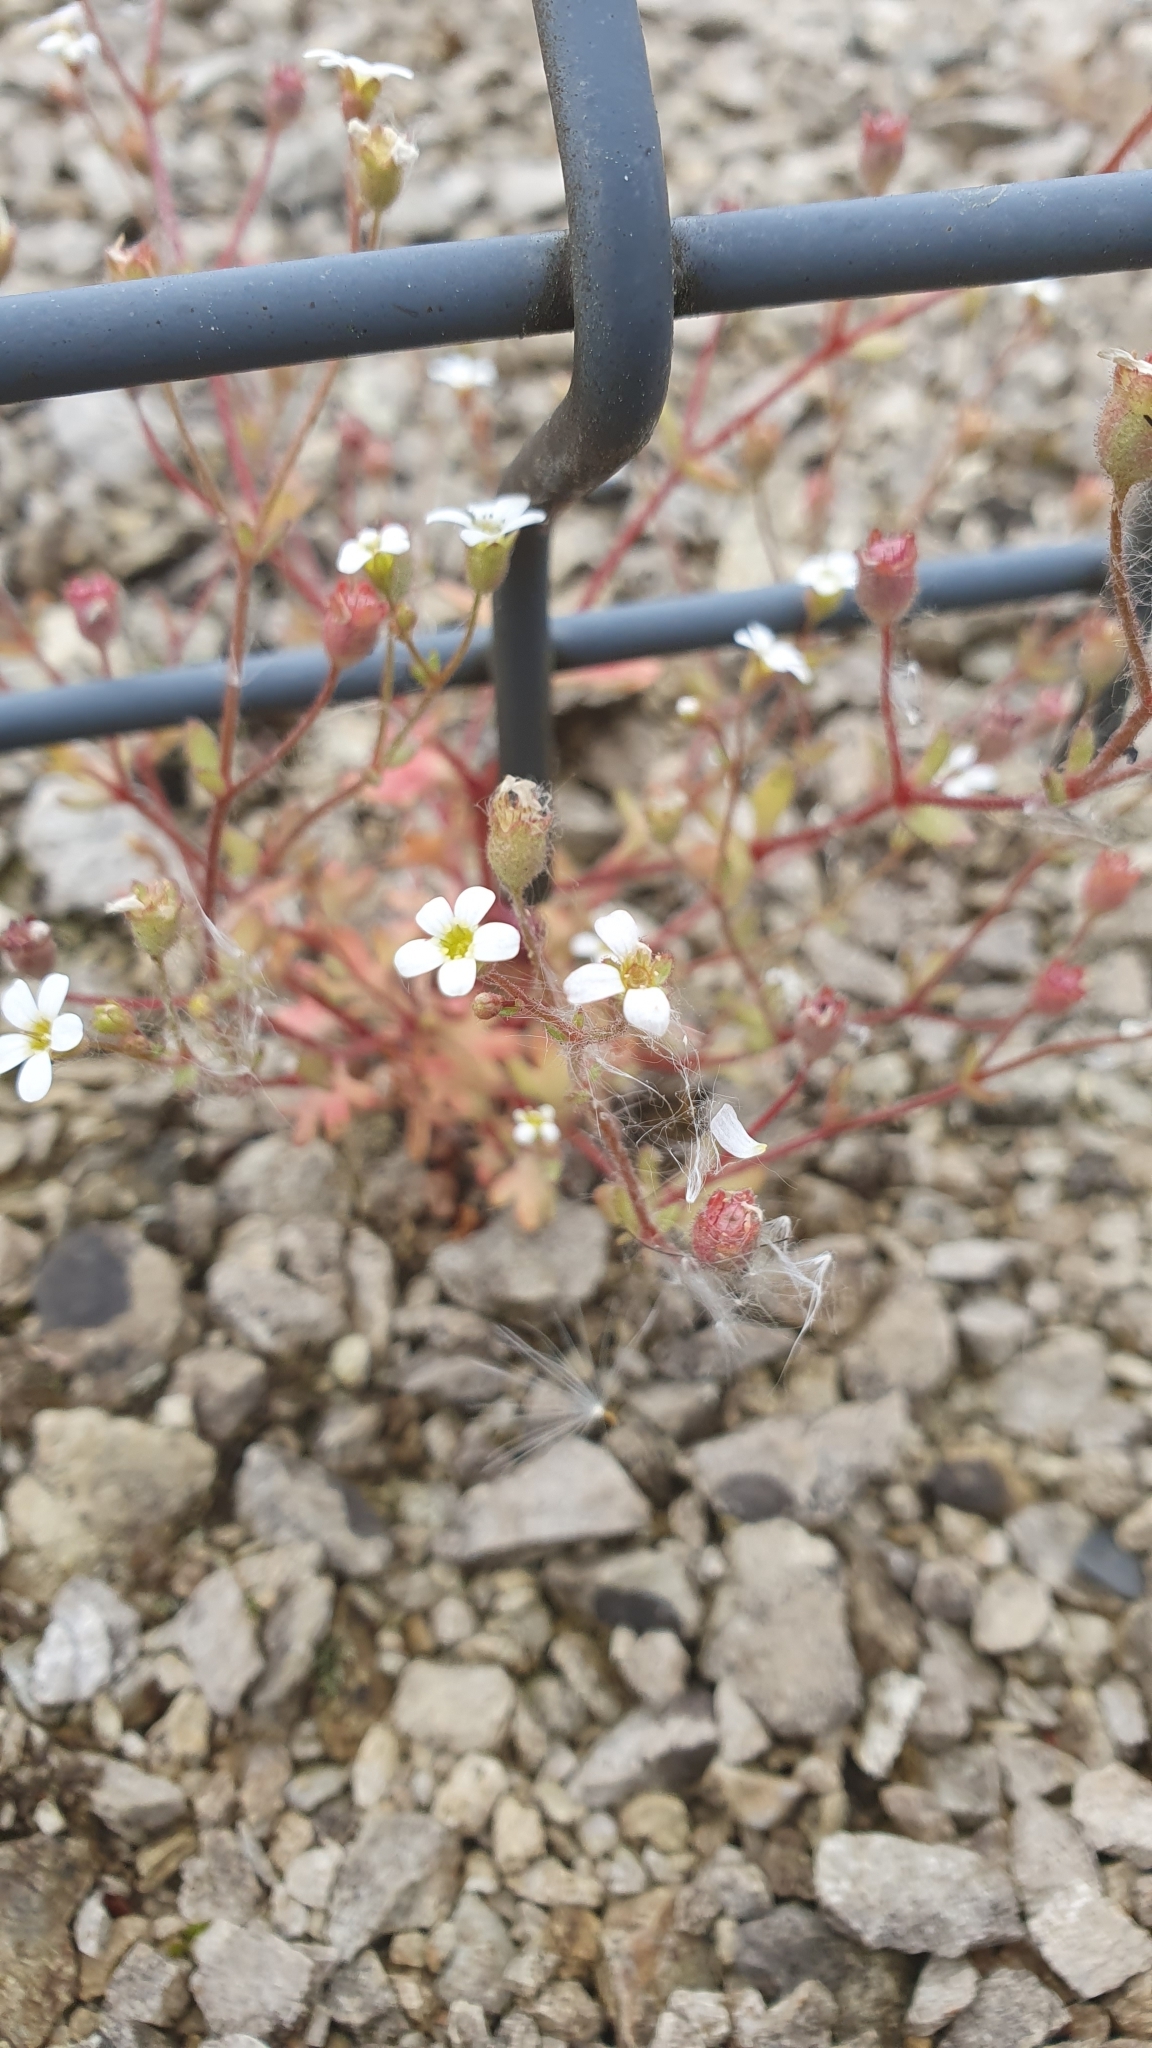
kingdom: Plantae
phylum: Tracheophyta
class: Magnoliopsida
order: Saxifragales
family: Saxifragaceae
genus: Saxifraga
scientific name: Saxifraga tridactylites
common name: Rue-leaved saxifrage
